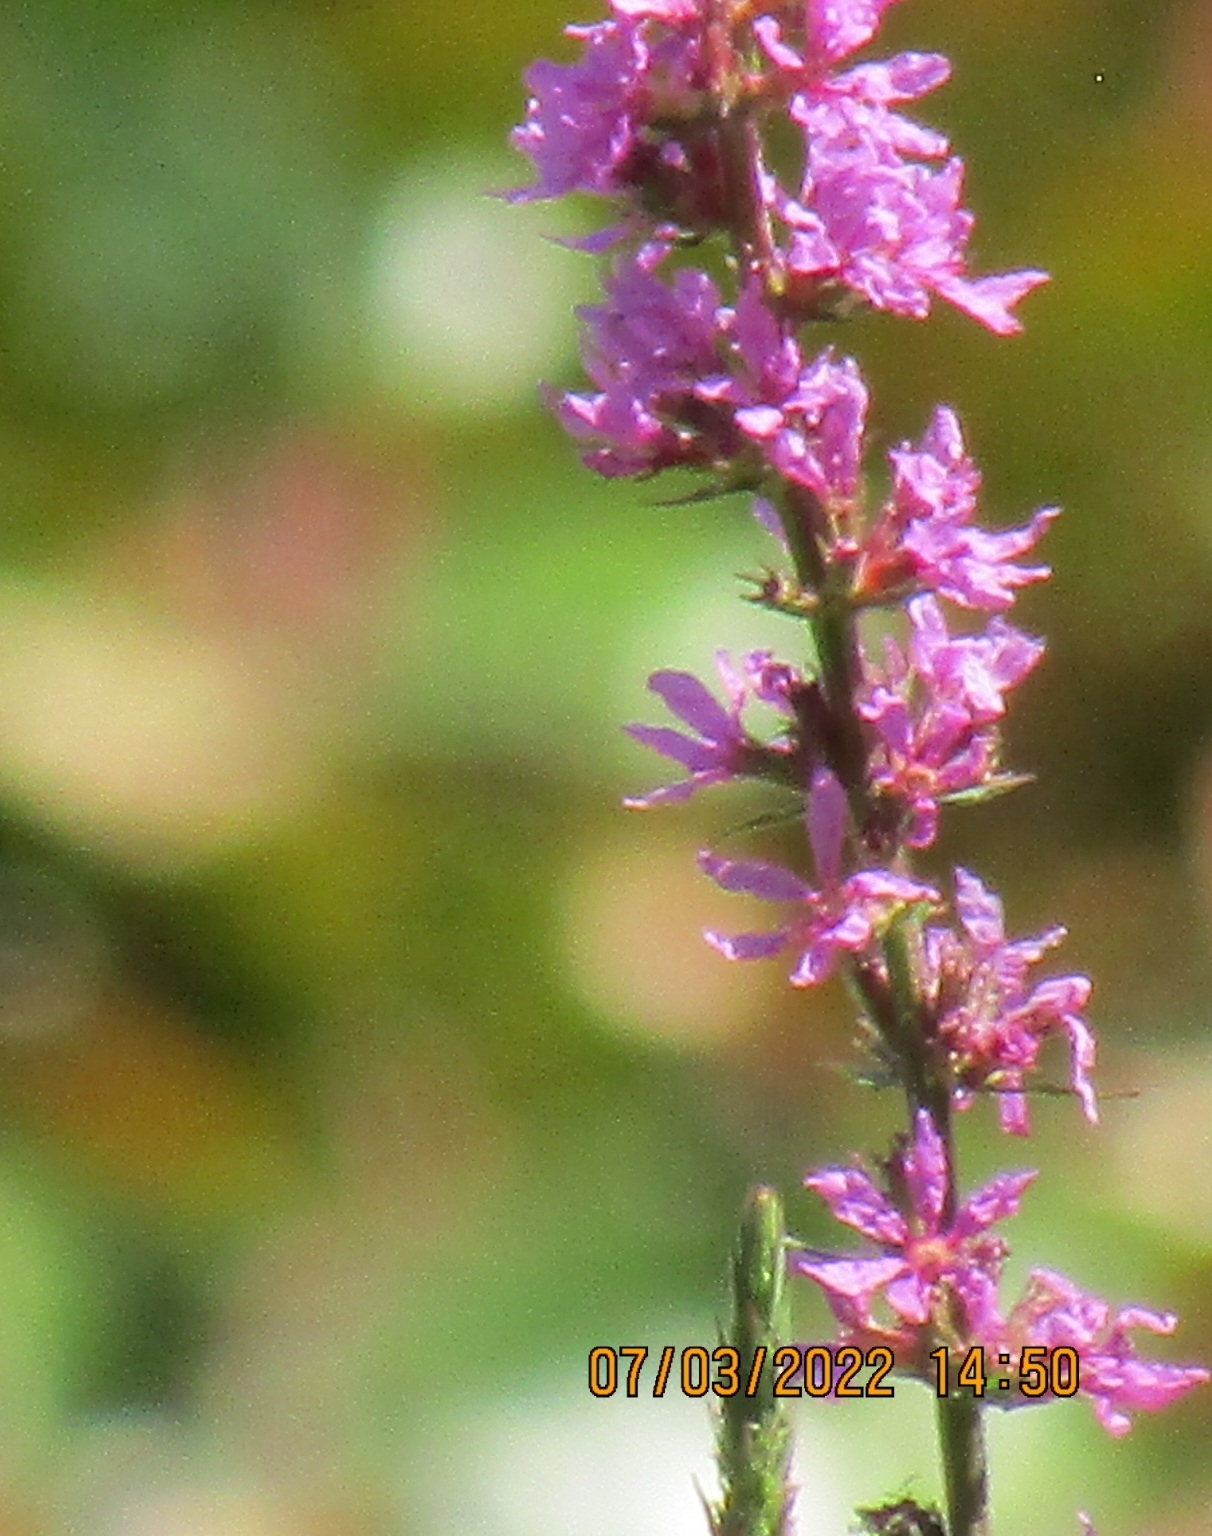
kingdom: Plantae
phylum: Tracheophyta
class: Magnoliopsida
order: Myrtales
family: Lythraceae
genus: Lythrum
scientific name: Lythrum salicaria
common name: Purple loosestrife
